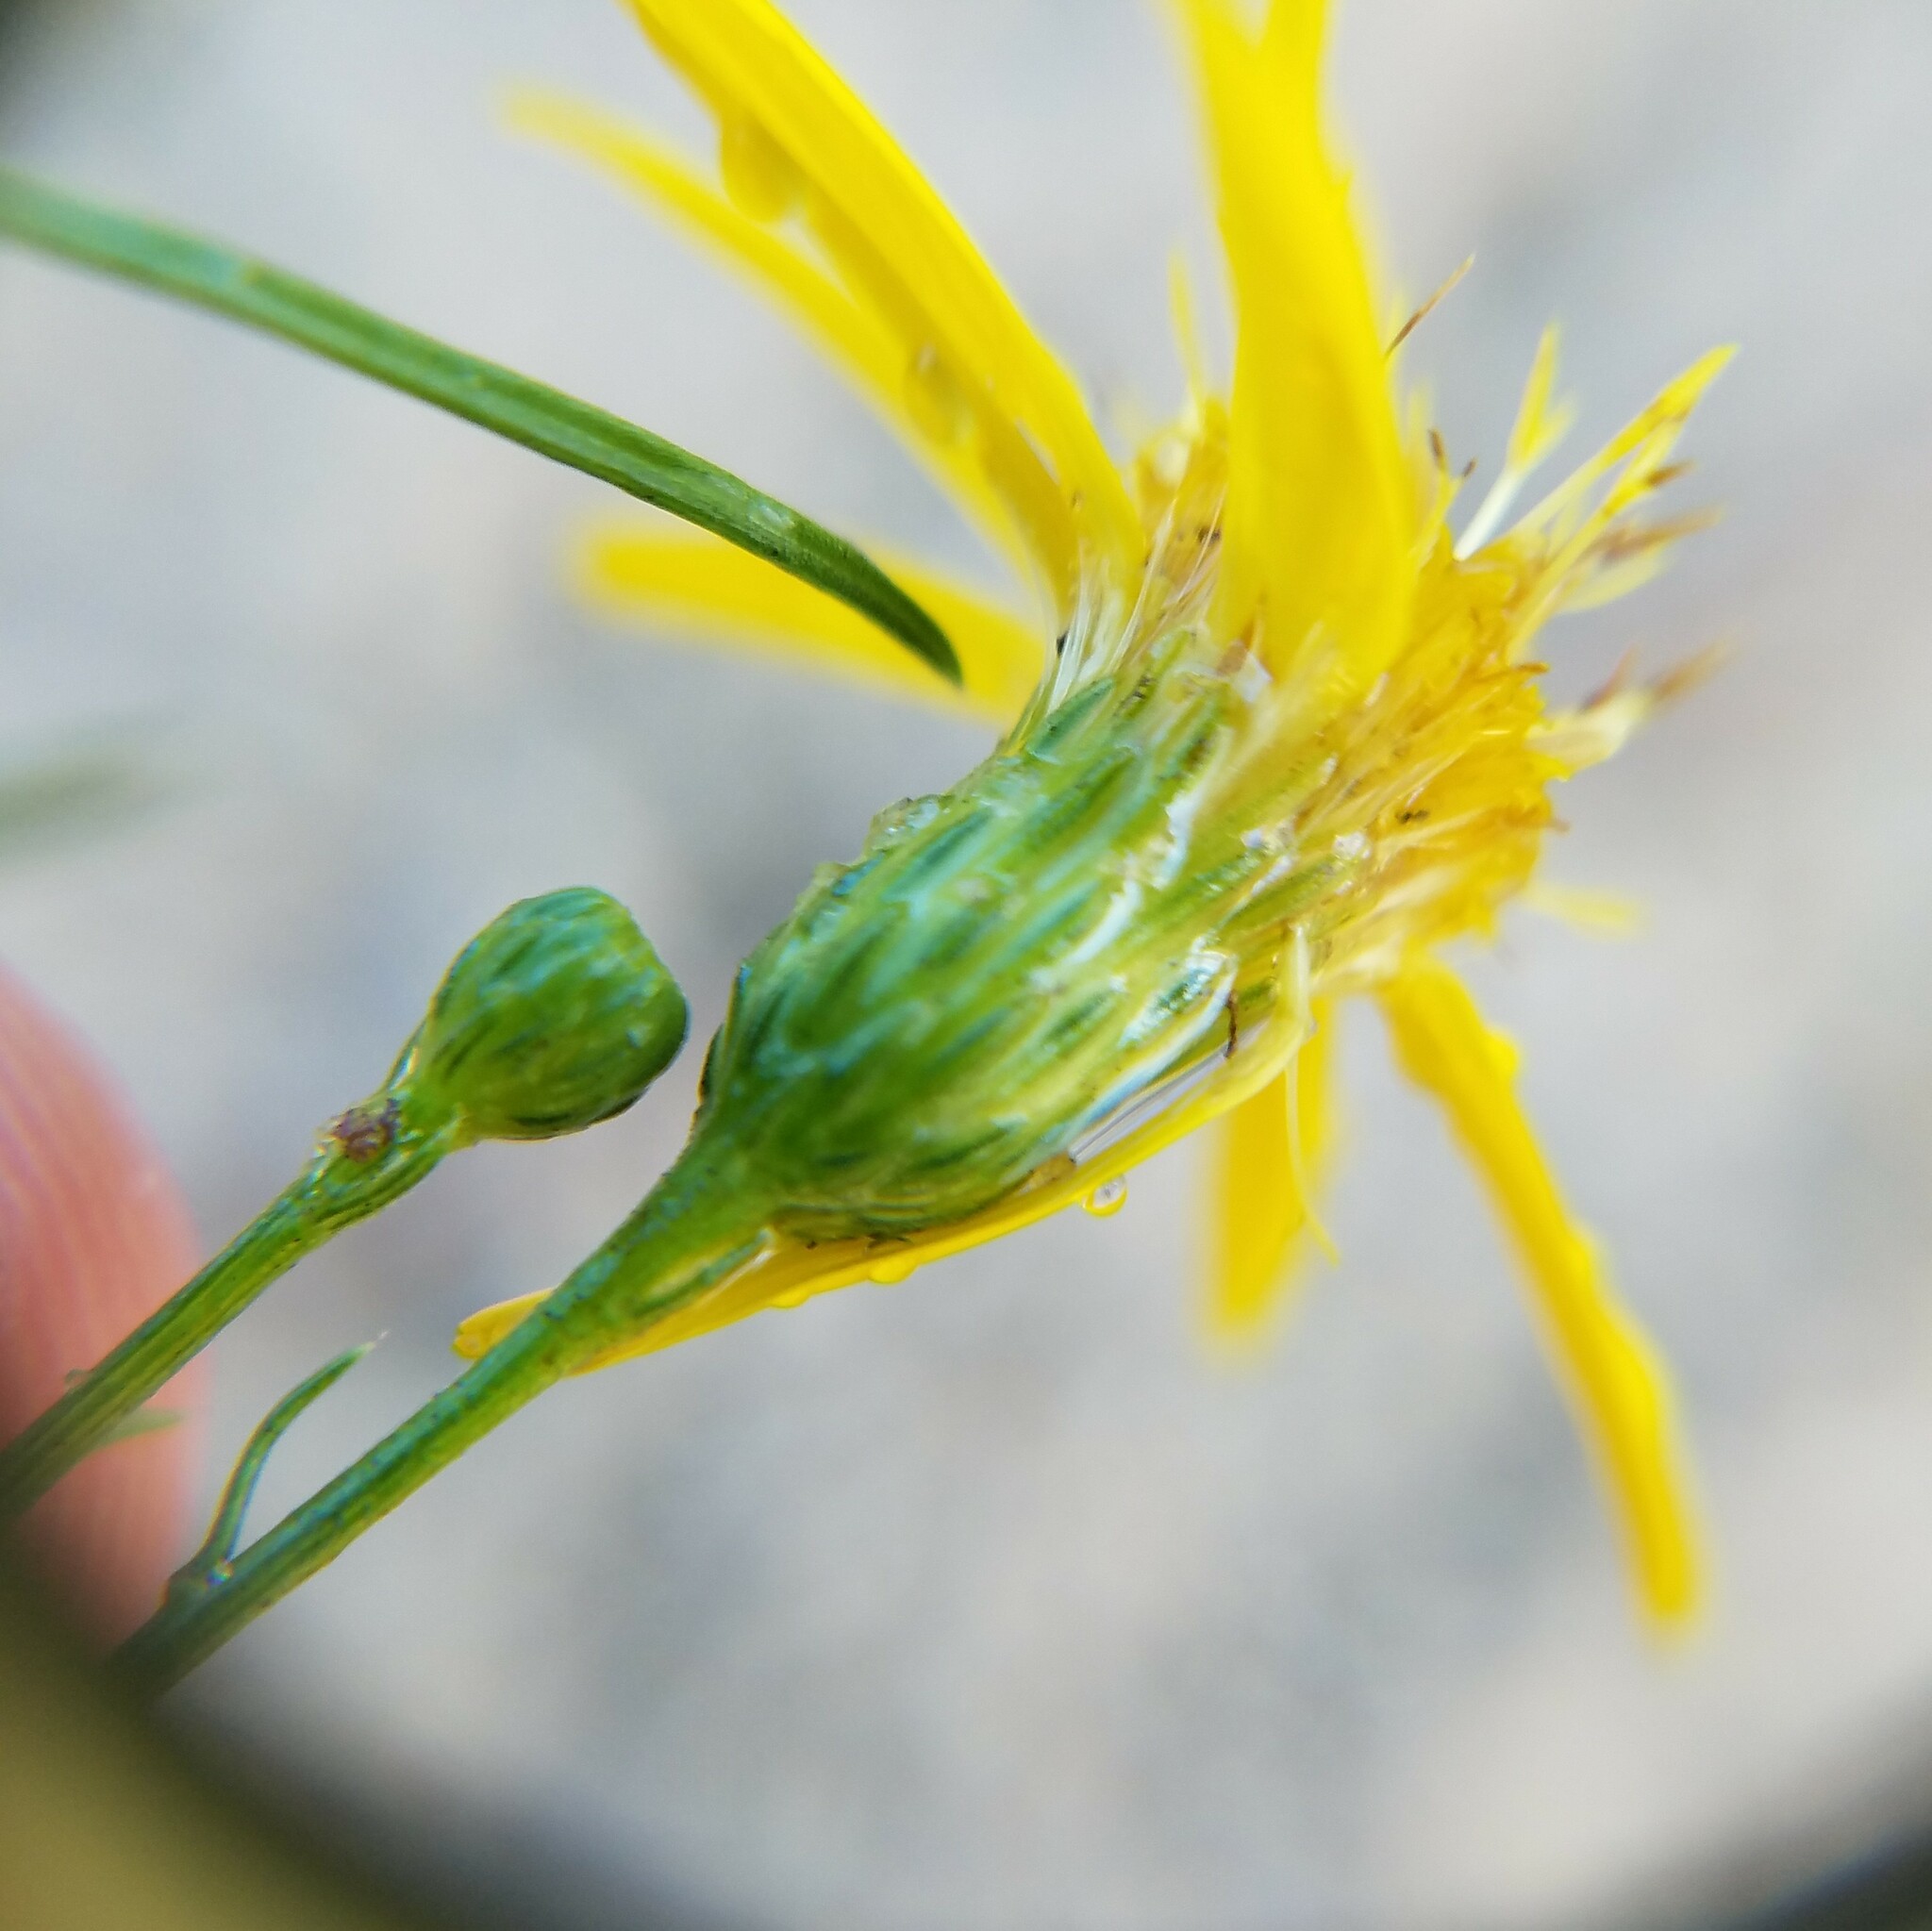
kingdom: Plantae
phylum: Tracheophyta
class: Magnoliopsida
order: Asterales
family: Asteraceae
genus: Pityopsis
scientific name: Pityopsis pinifolia
